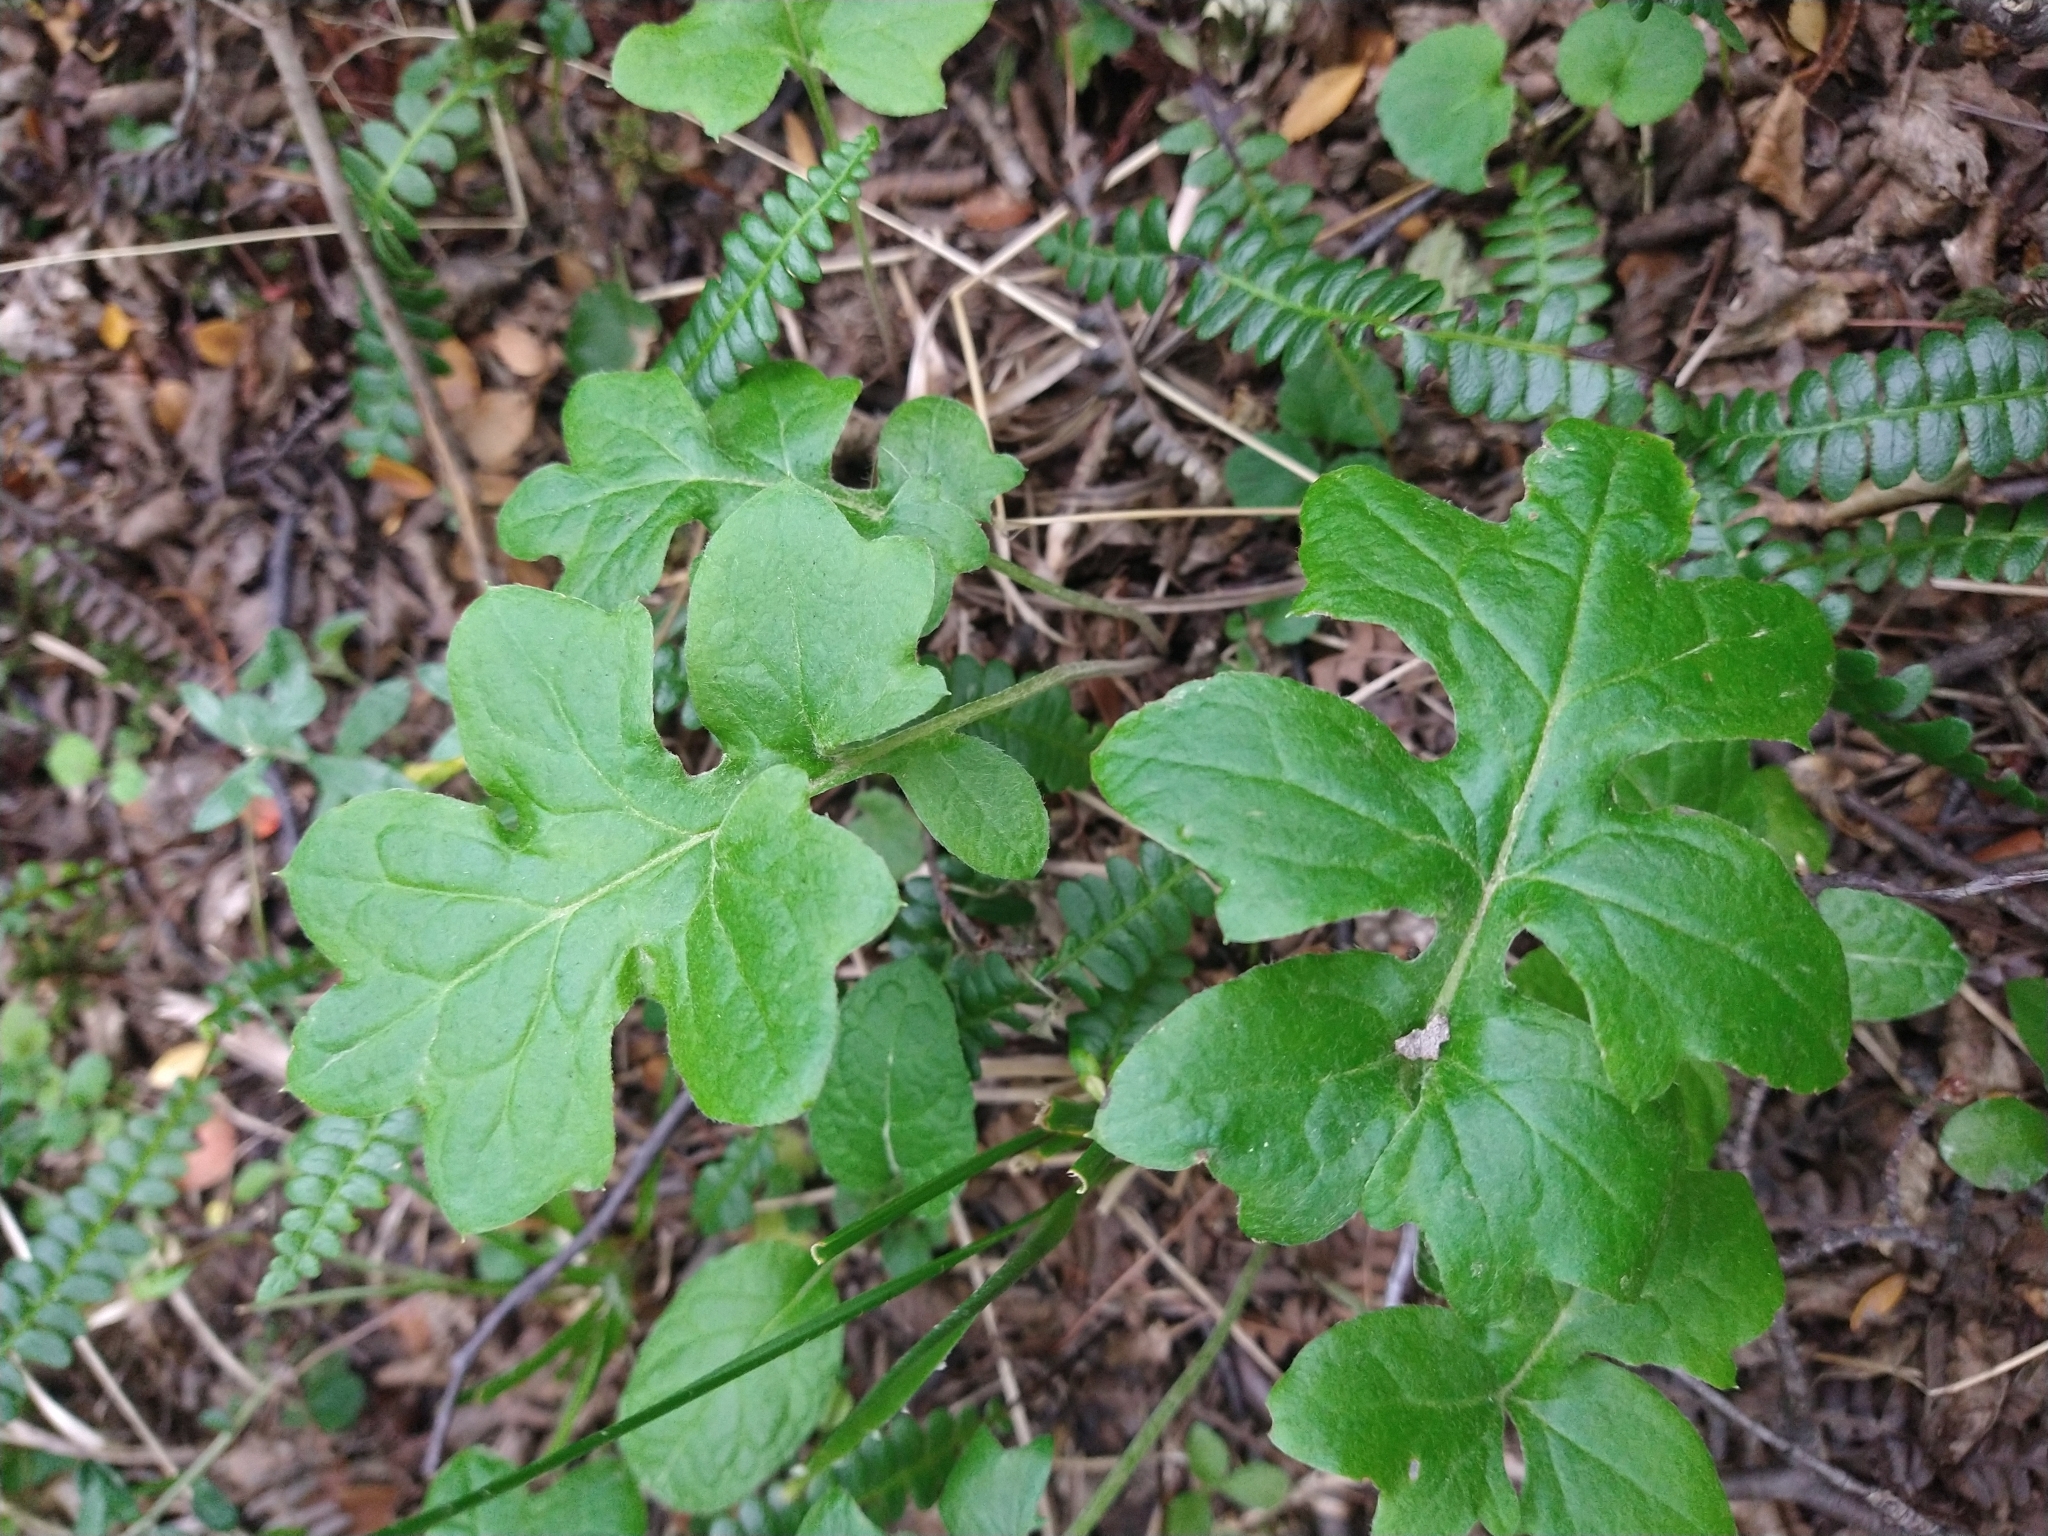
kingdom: Plantae
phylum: Tracheophyta
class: Magnoliopsida
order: Asterales
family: Asteraceae
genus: Macrachaenium
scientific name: Macrachaenium gracile
